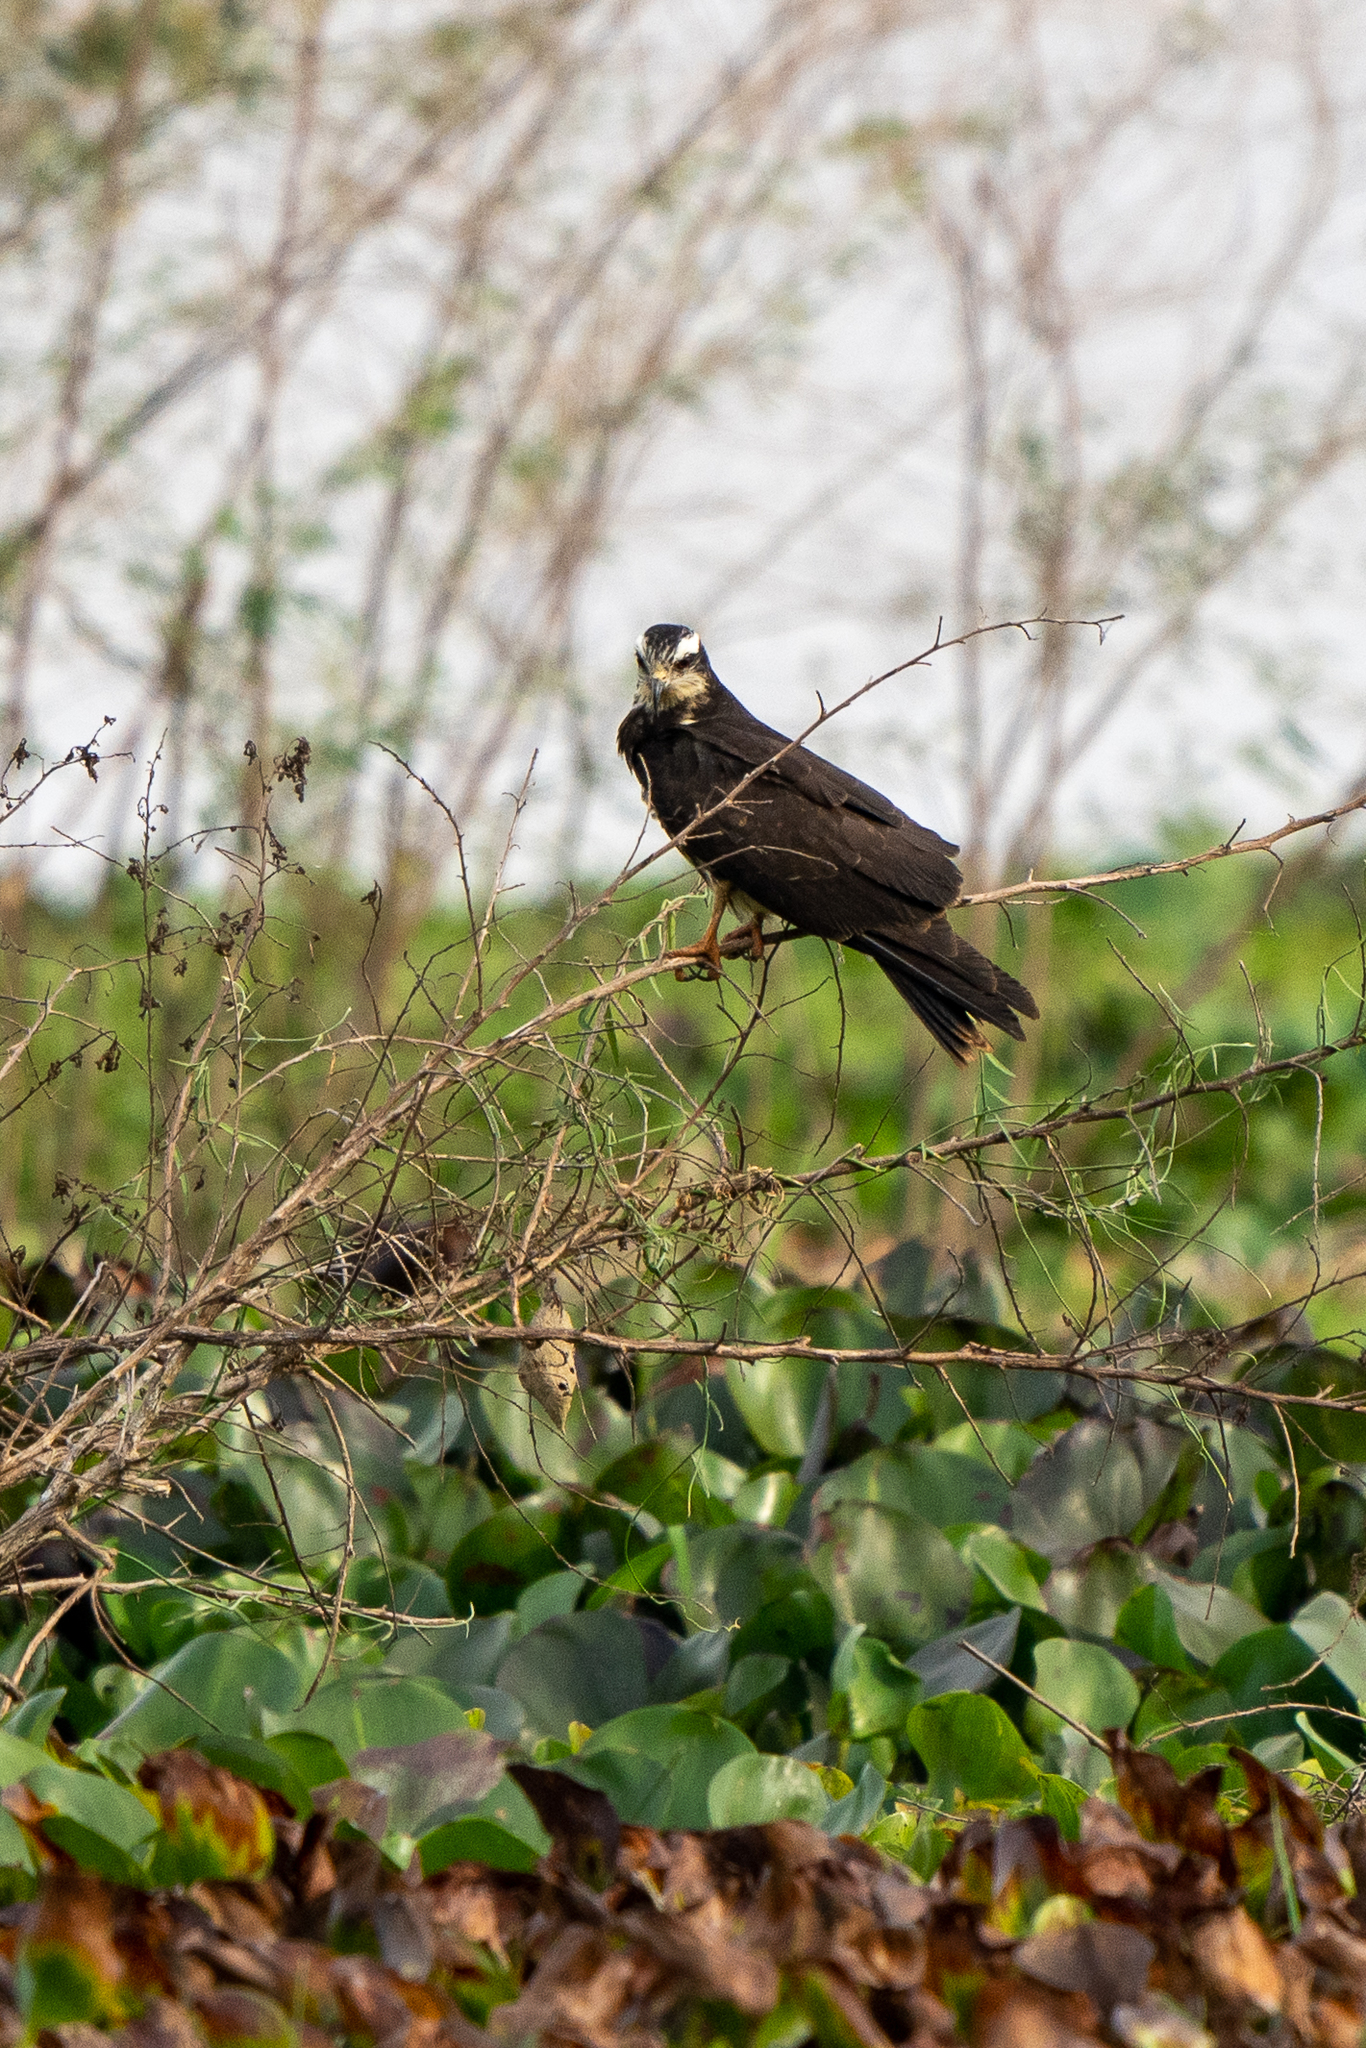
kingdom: Animalia
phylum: Chordata
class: Aves
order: Accipitriformes
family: Accipitridae
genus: Rostrhamus
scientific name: Rostrhamus sociabilis
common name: Snail kite
